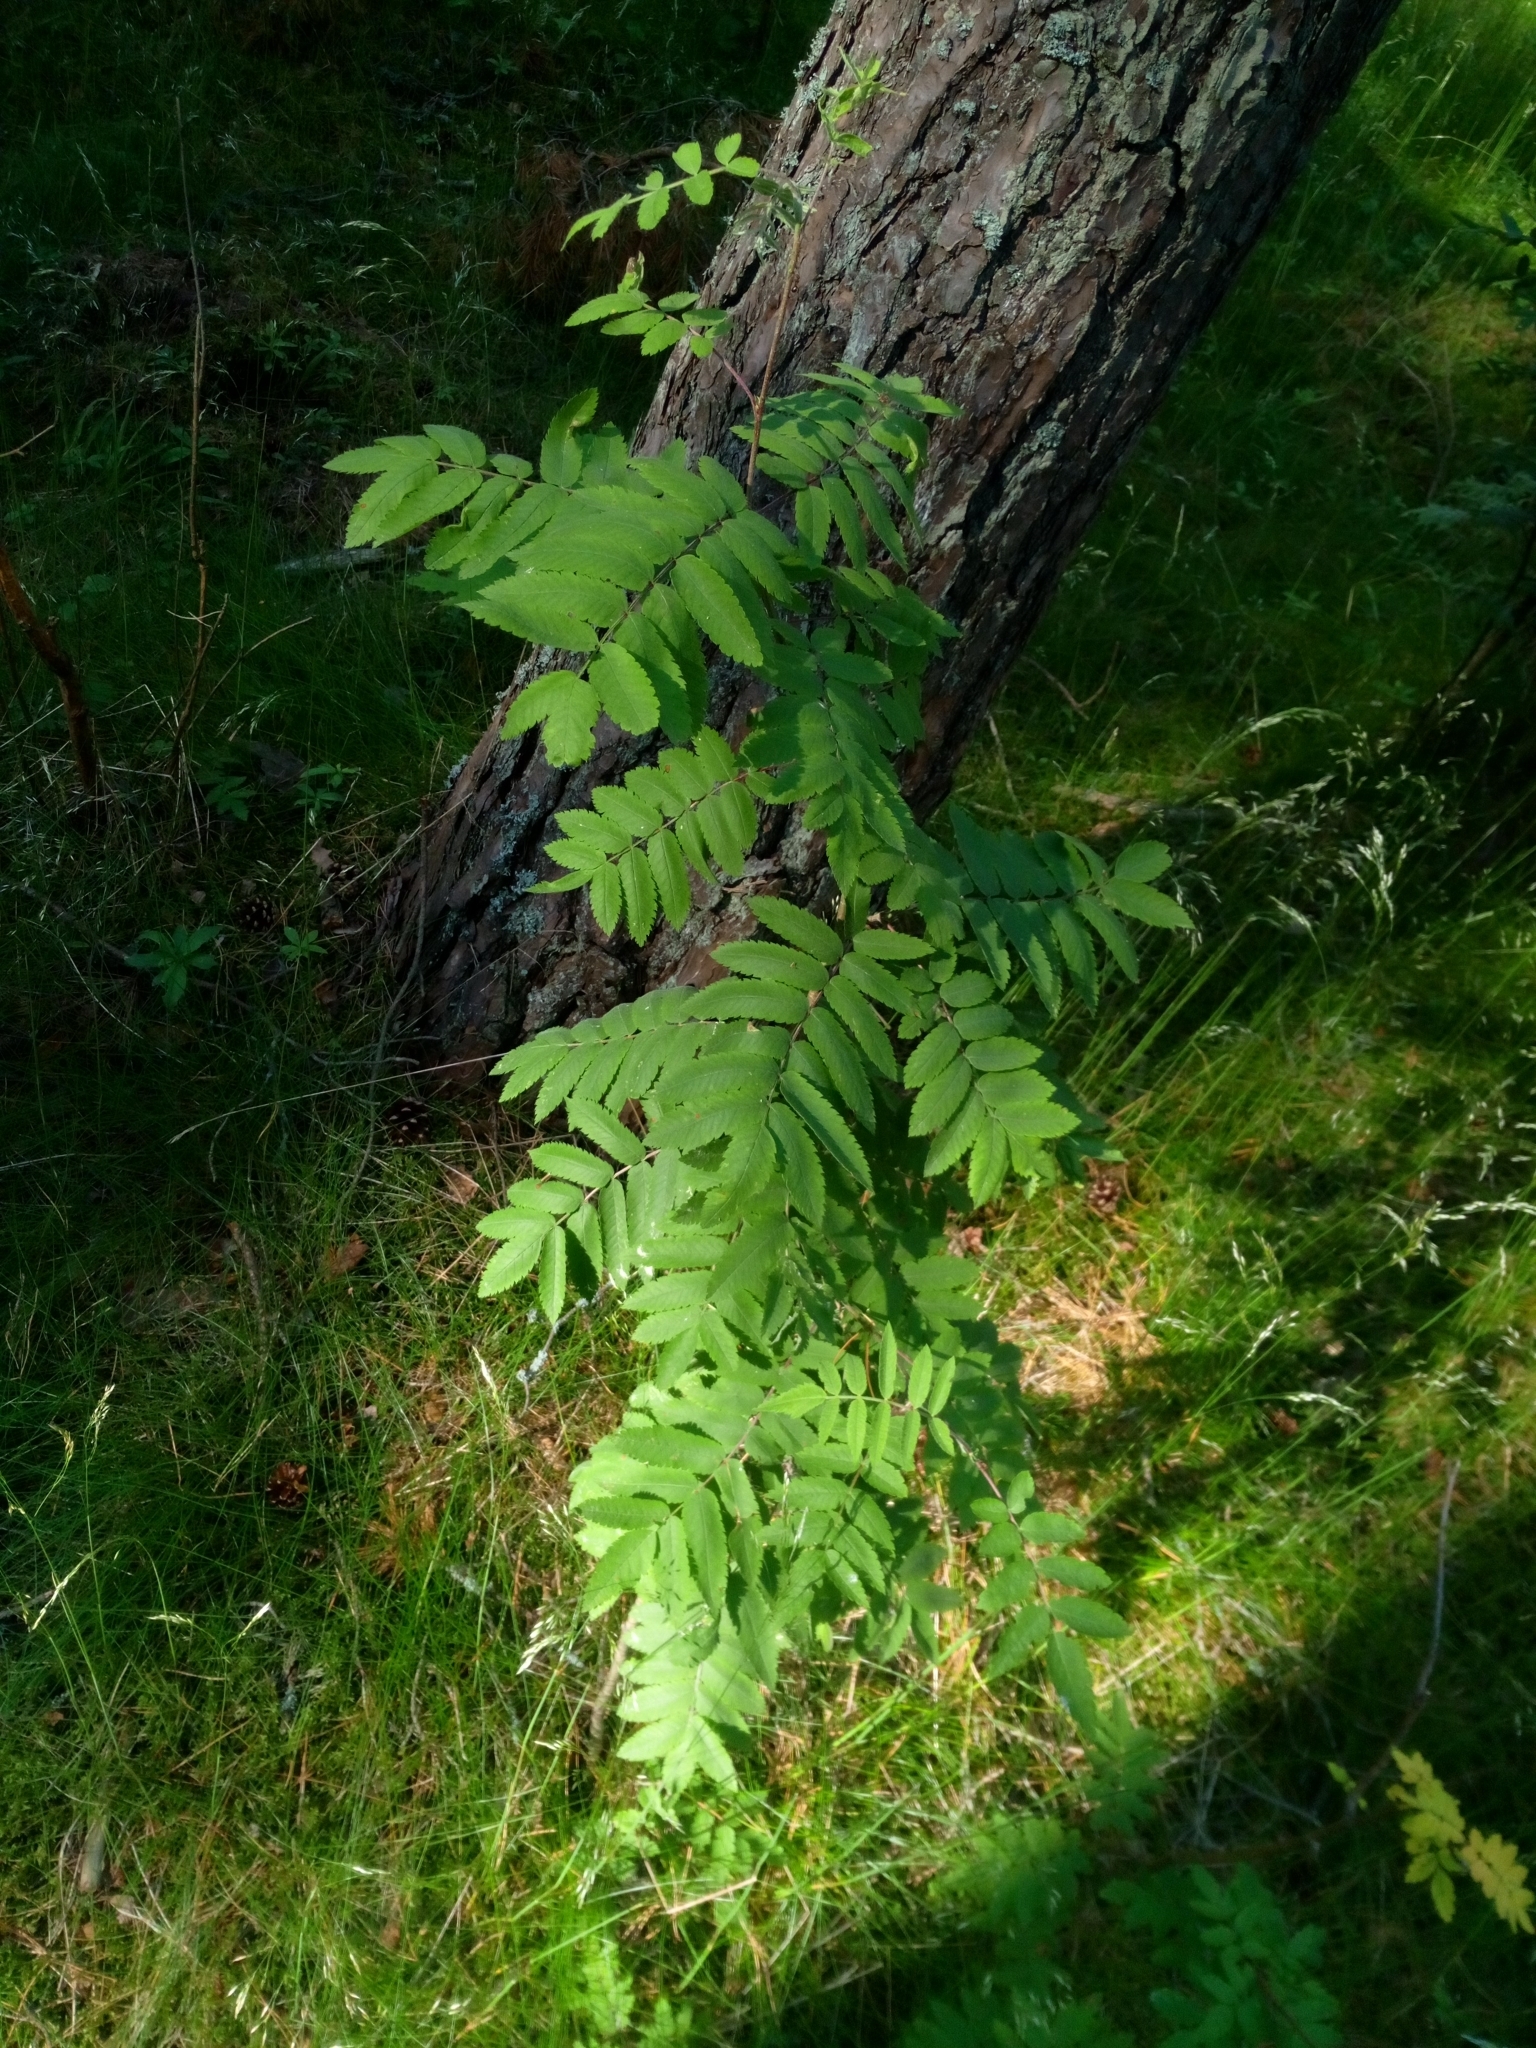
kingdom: Plantae
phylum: Tracheophyta
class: Magnoliopsida
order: Rosales
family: Rosaceae
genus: Sorbus
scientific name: Sorbus aucuparia
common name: Rowan
